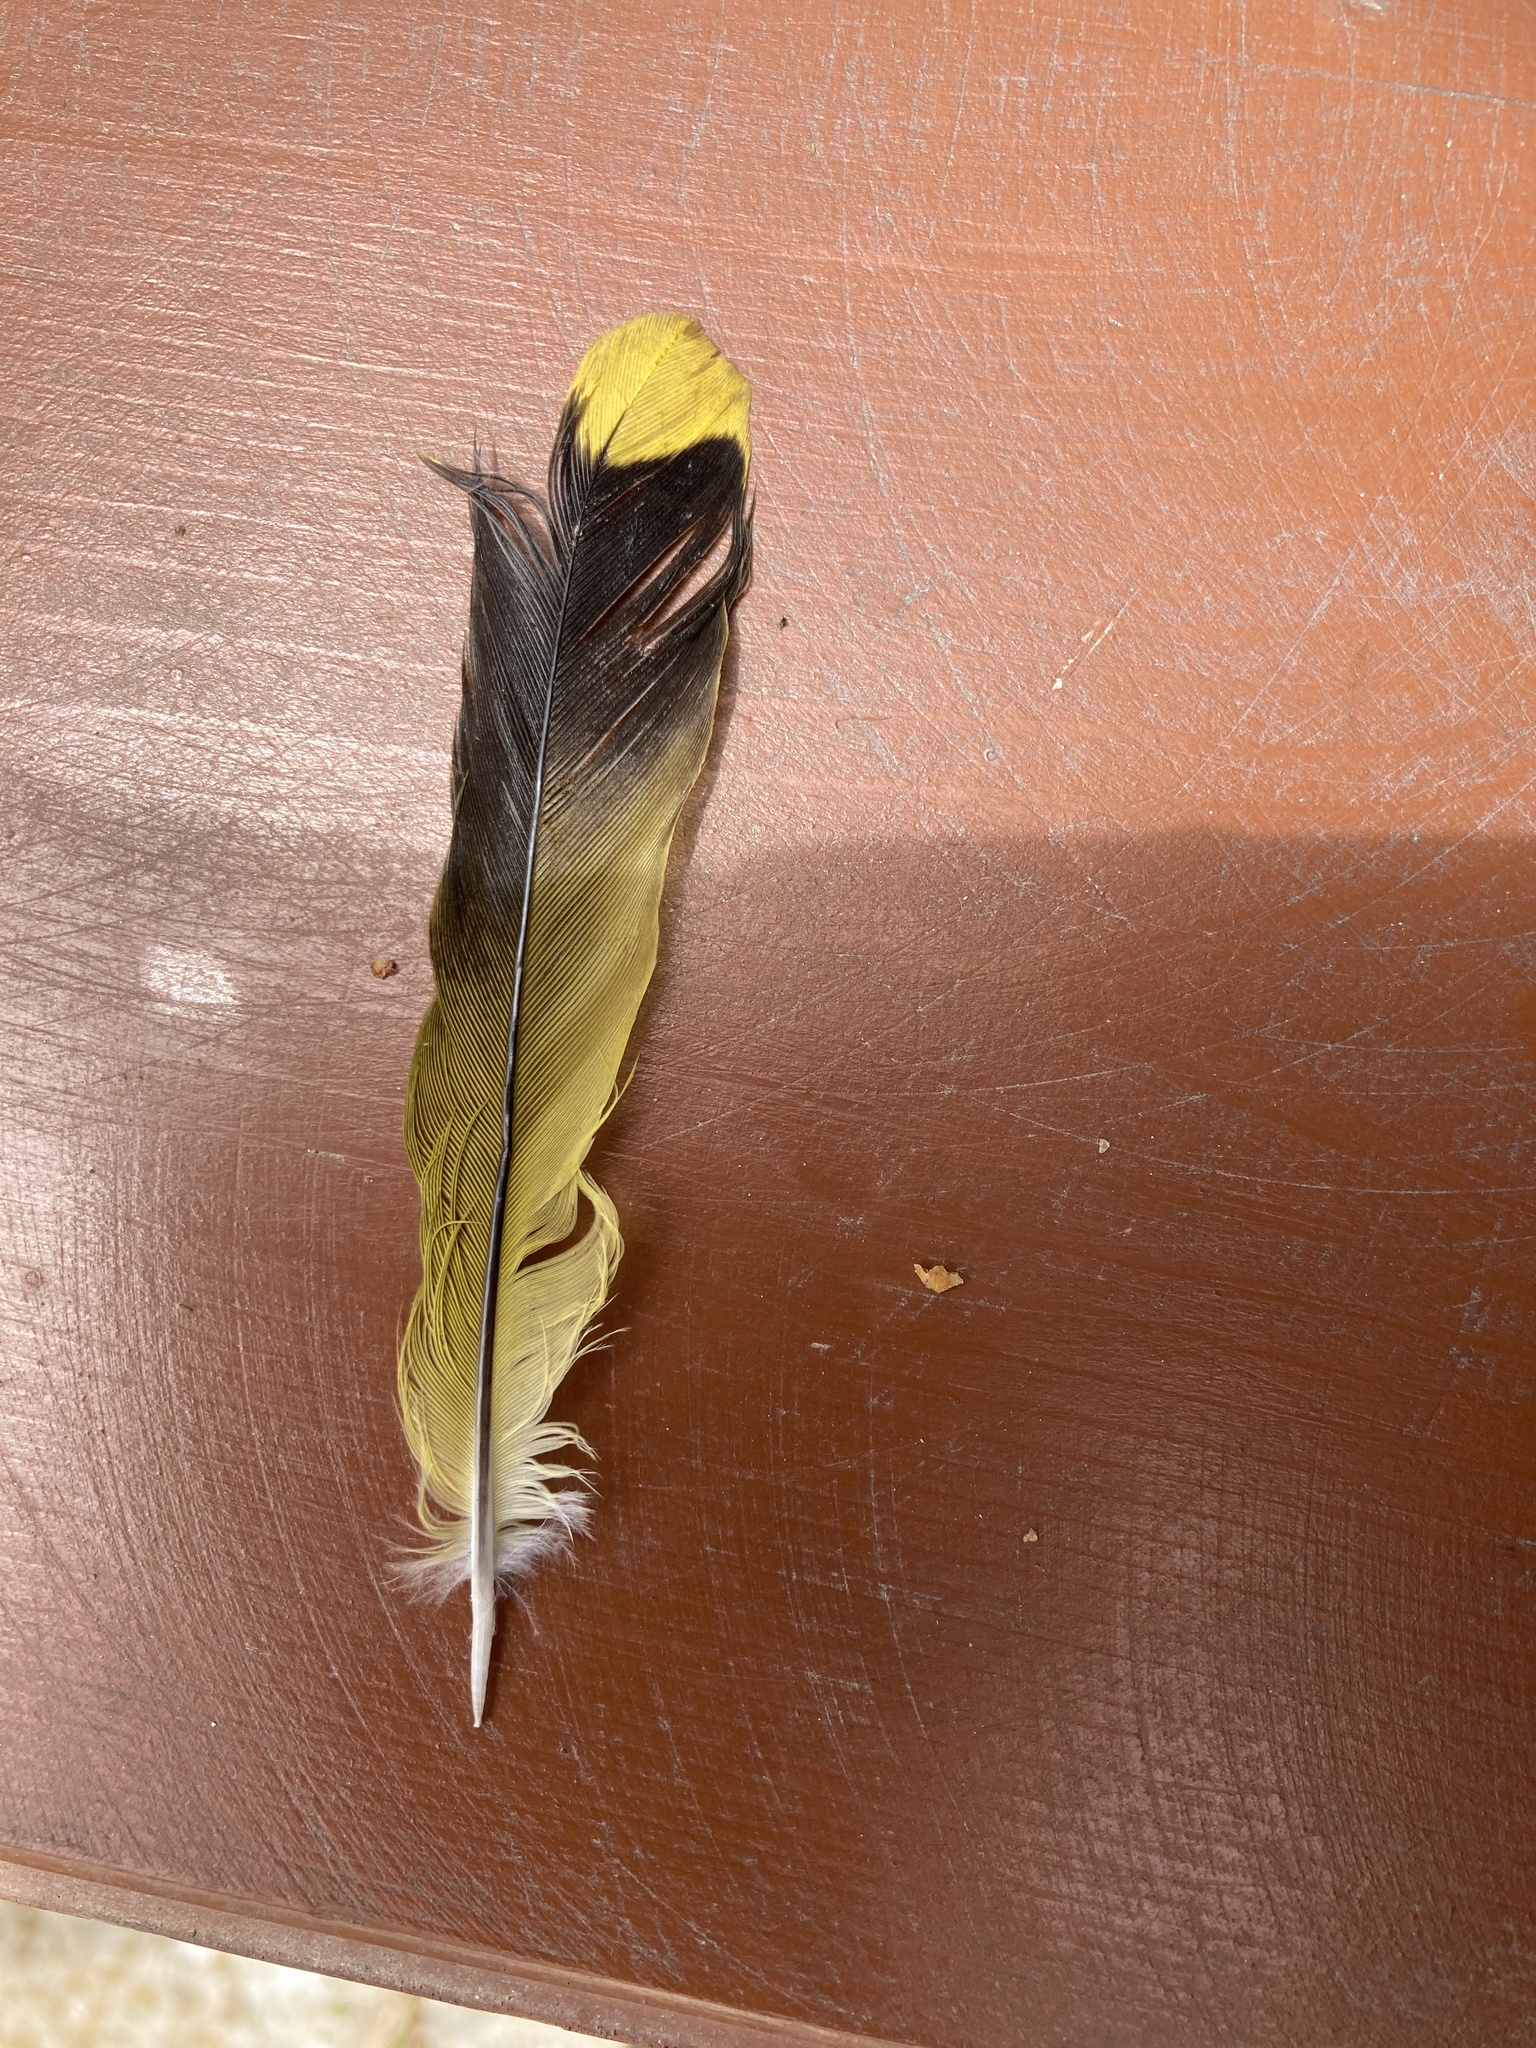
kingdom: Animalia
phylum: Chordata
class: Aves
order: Passeriformes
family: Oriolidae
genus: Oriolus
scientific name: Oriolus oriolus
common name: Eurasian golden oriole
